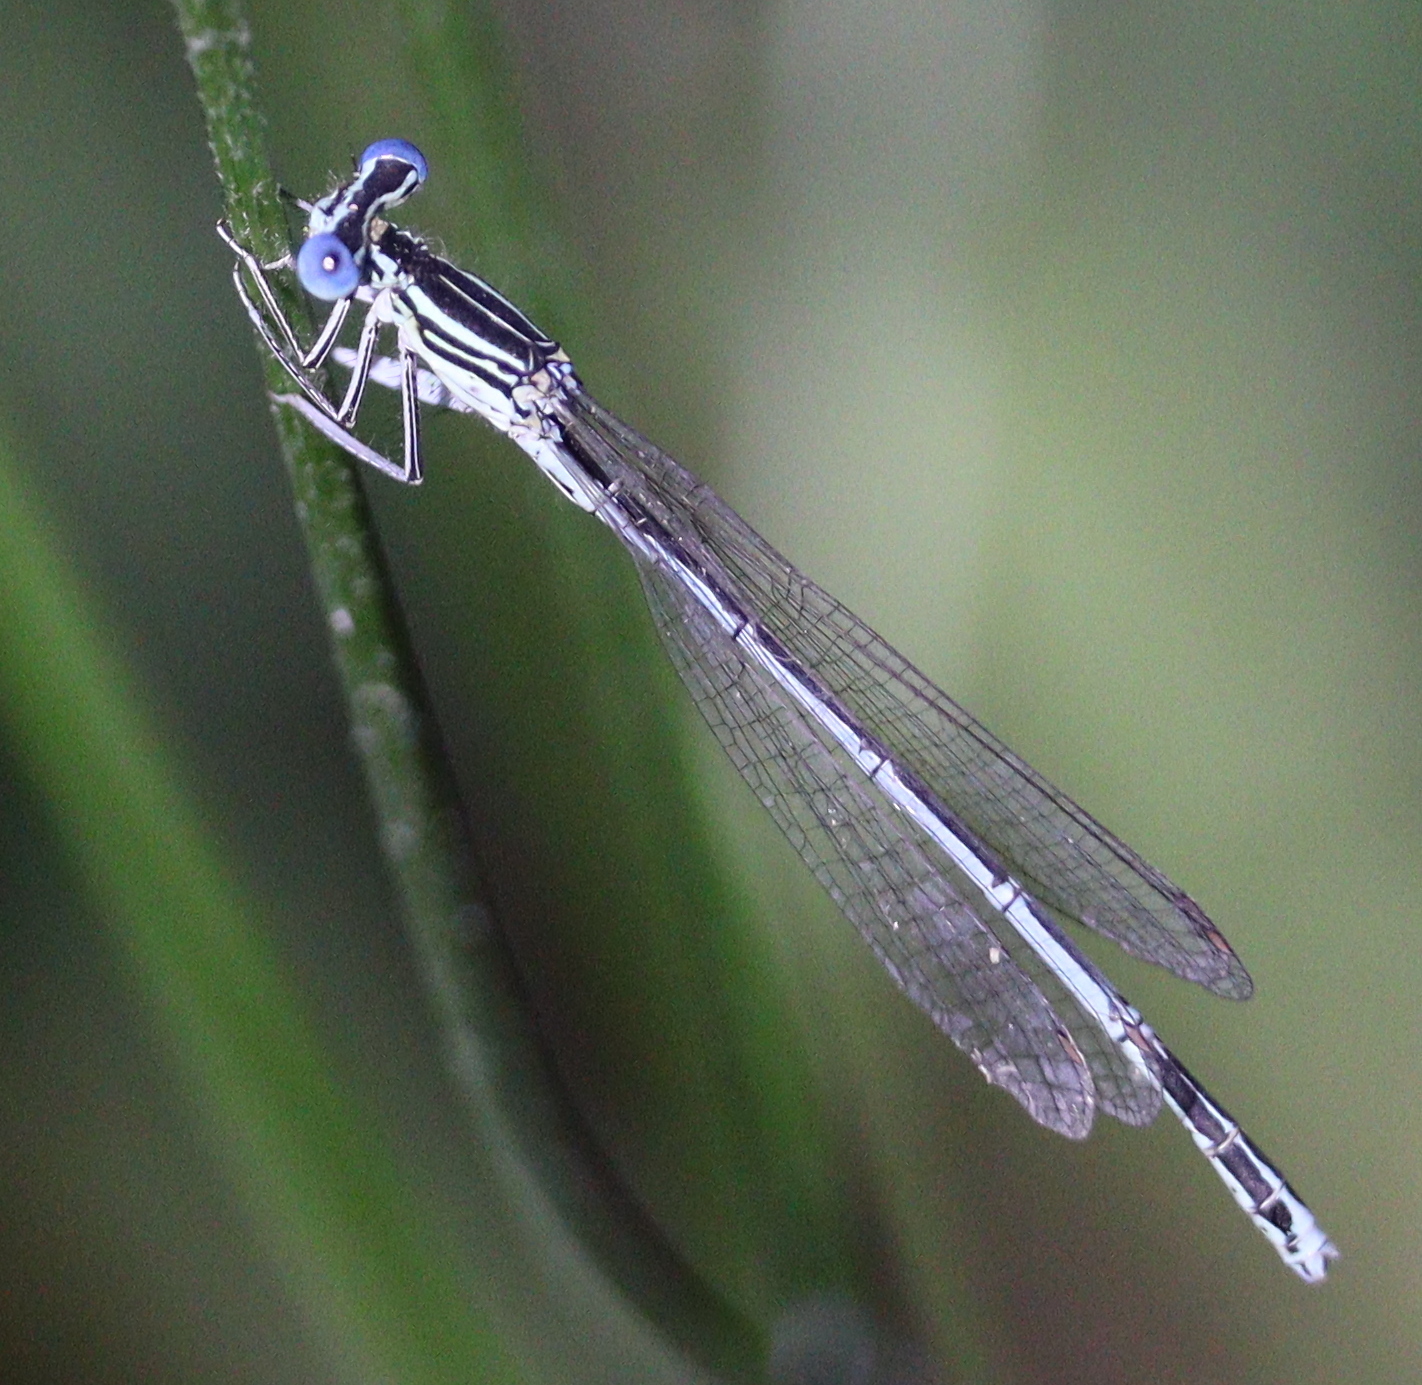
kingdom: Animalia
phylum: Arthropoda
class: Insecta
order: Odonata
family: Platycnemididae
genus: Platycnemis
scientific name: Platycnemis pennipes
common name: White-legged damselfly
